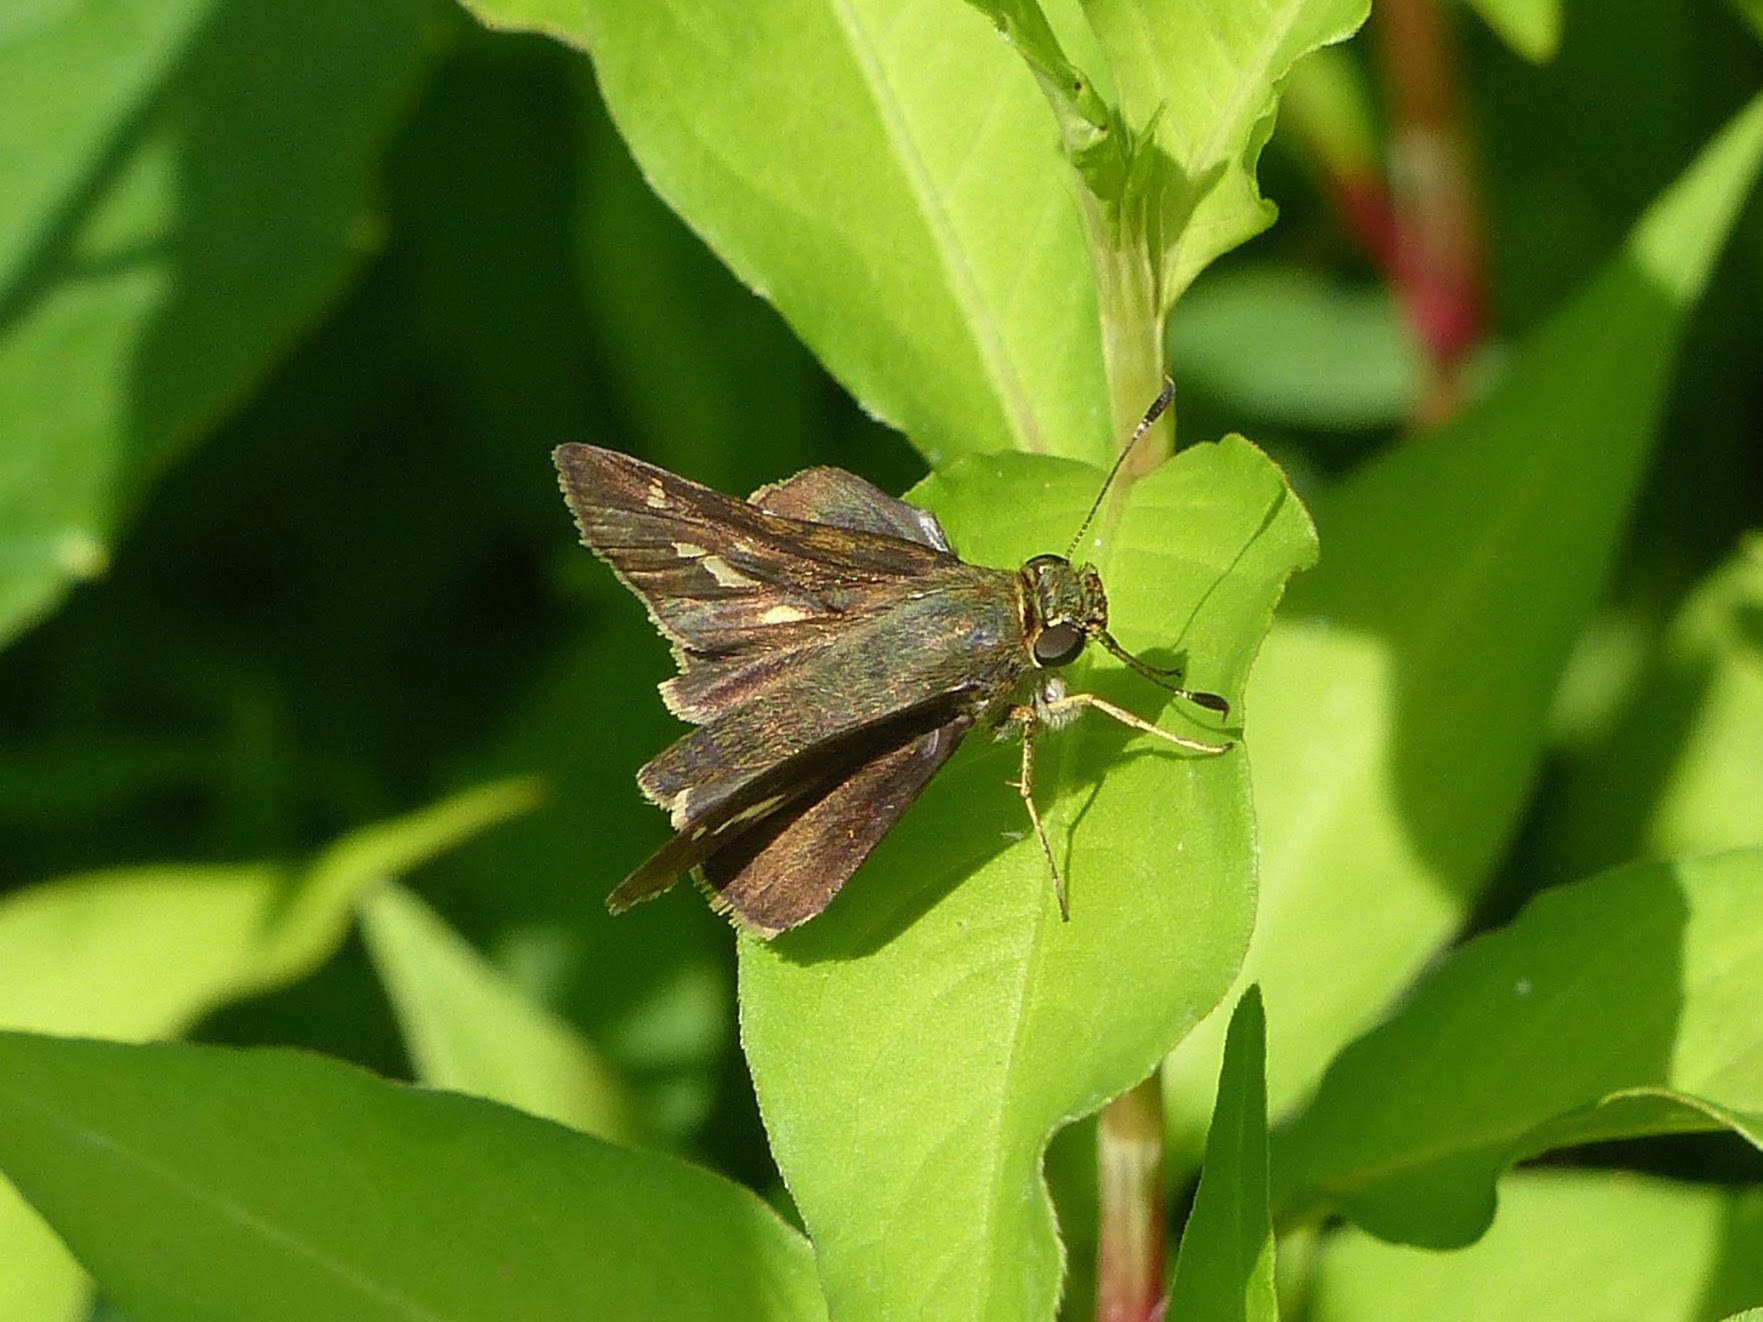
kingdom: Animalia
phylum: Arthropoda
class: Insecta
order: Lepidoptera
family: Hesperiidae
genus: Vernia
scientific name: Vernia verna
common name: Little glassywing
